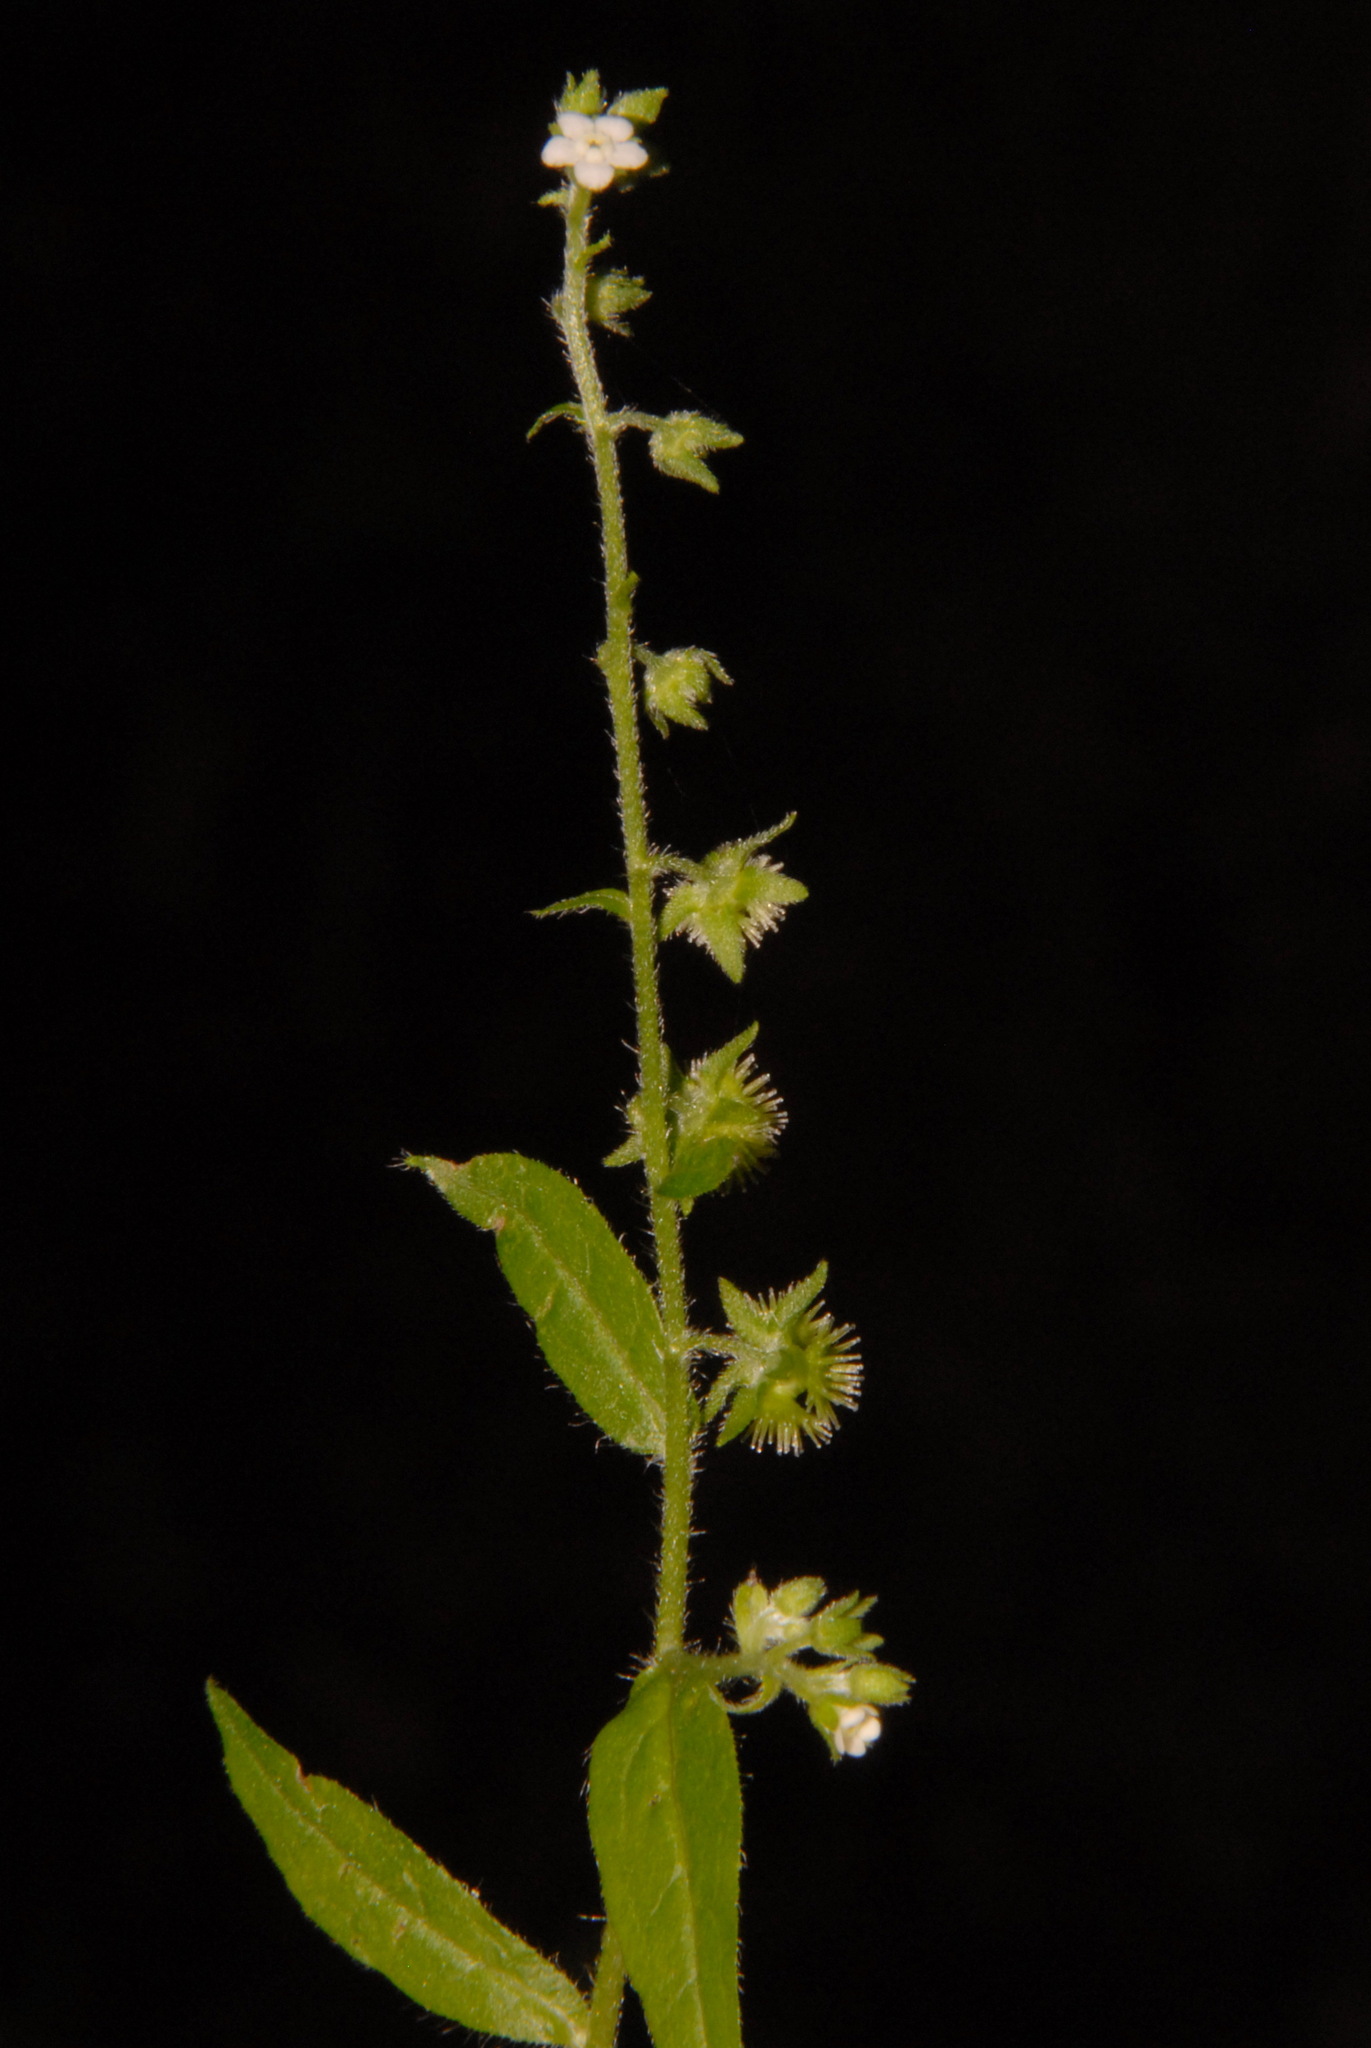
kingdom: Plantae
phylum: Tracheophyta
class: Magnoliopsida
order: Boraginales
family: Boraginaceae
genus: Hackelia
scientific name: Hackelia virginiana
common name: Beggar's-lice
